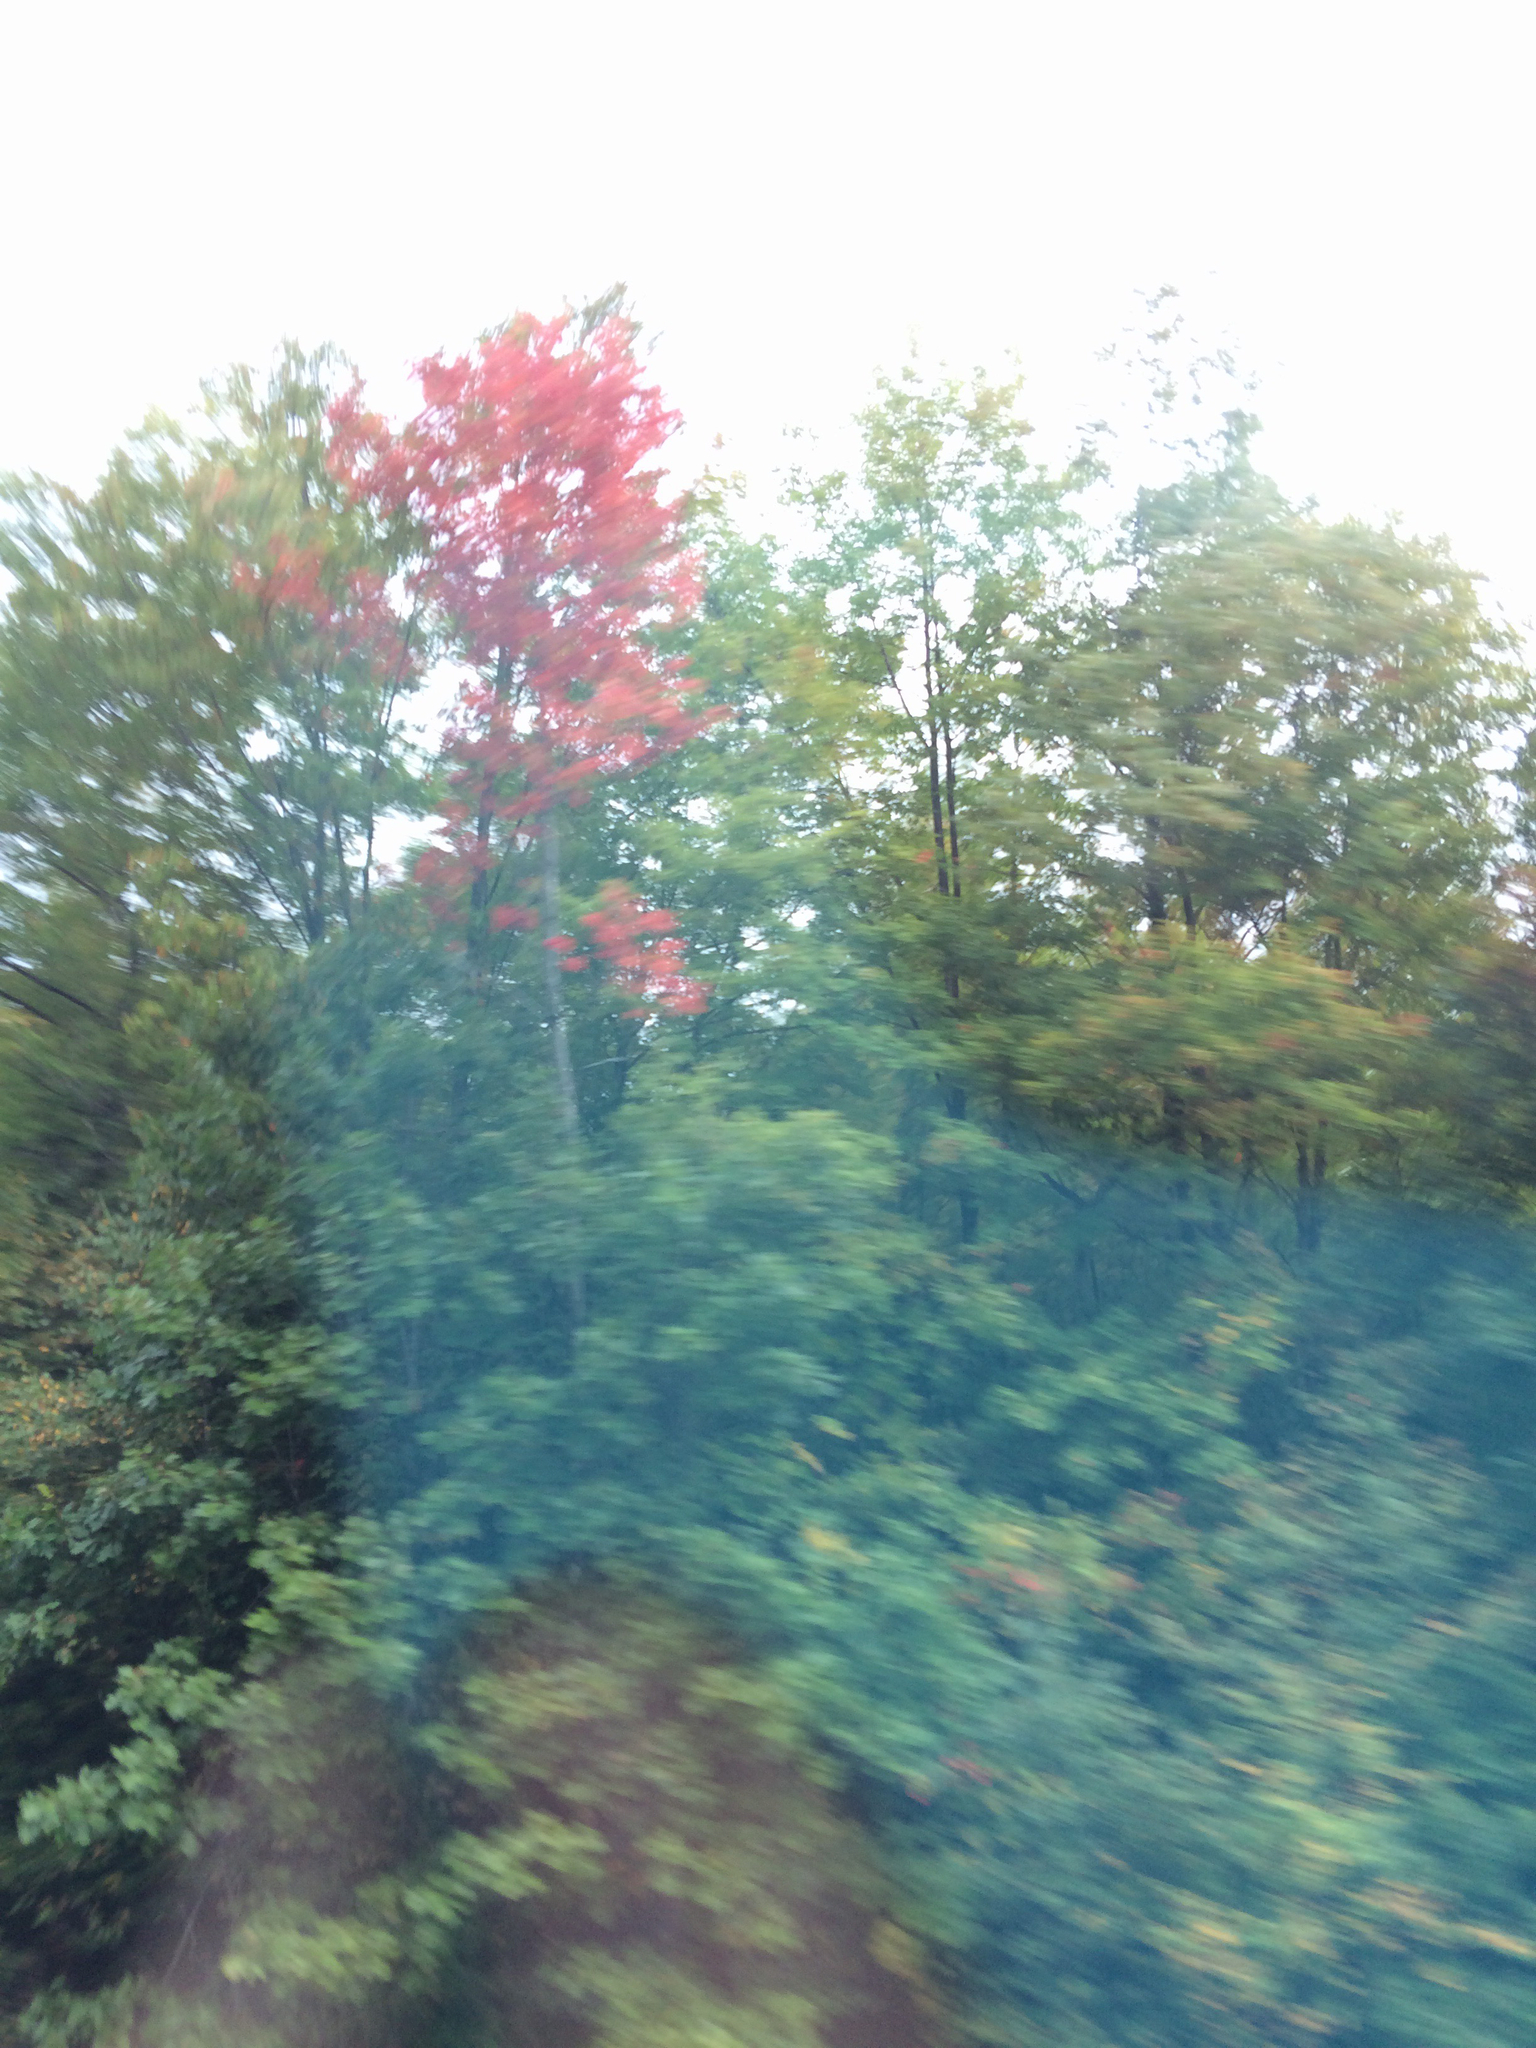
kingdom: Plantae
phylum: Tracheophyta
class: Magnoliopsida
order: Sapindales
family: Sapindaceae
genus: Acer
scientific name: Acer rubrum
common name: Red maple
